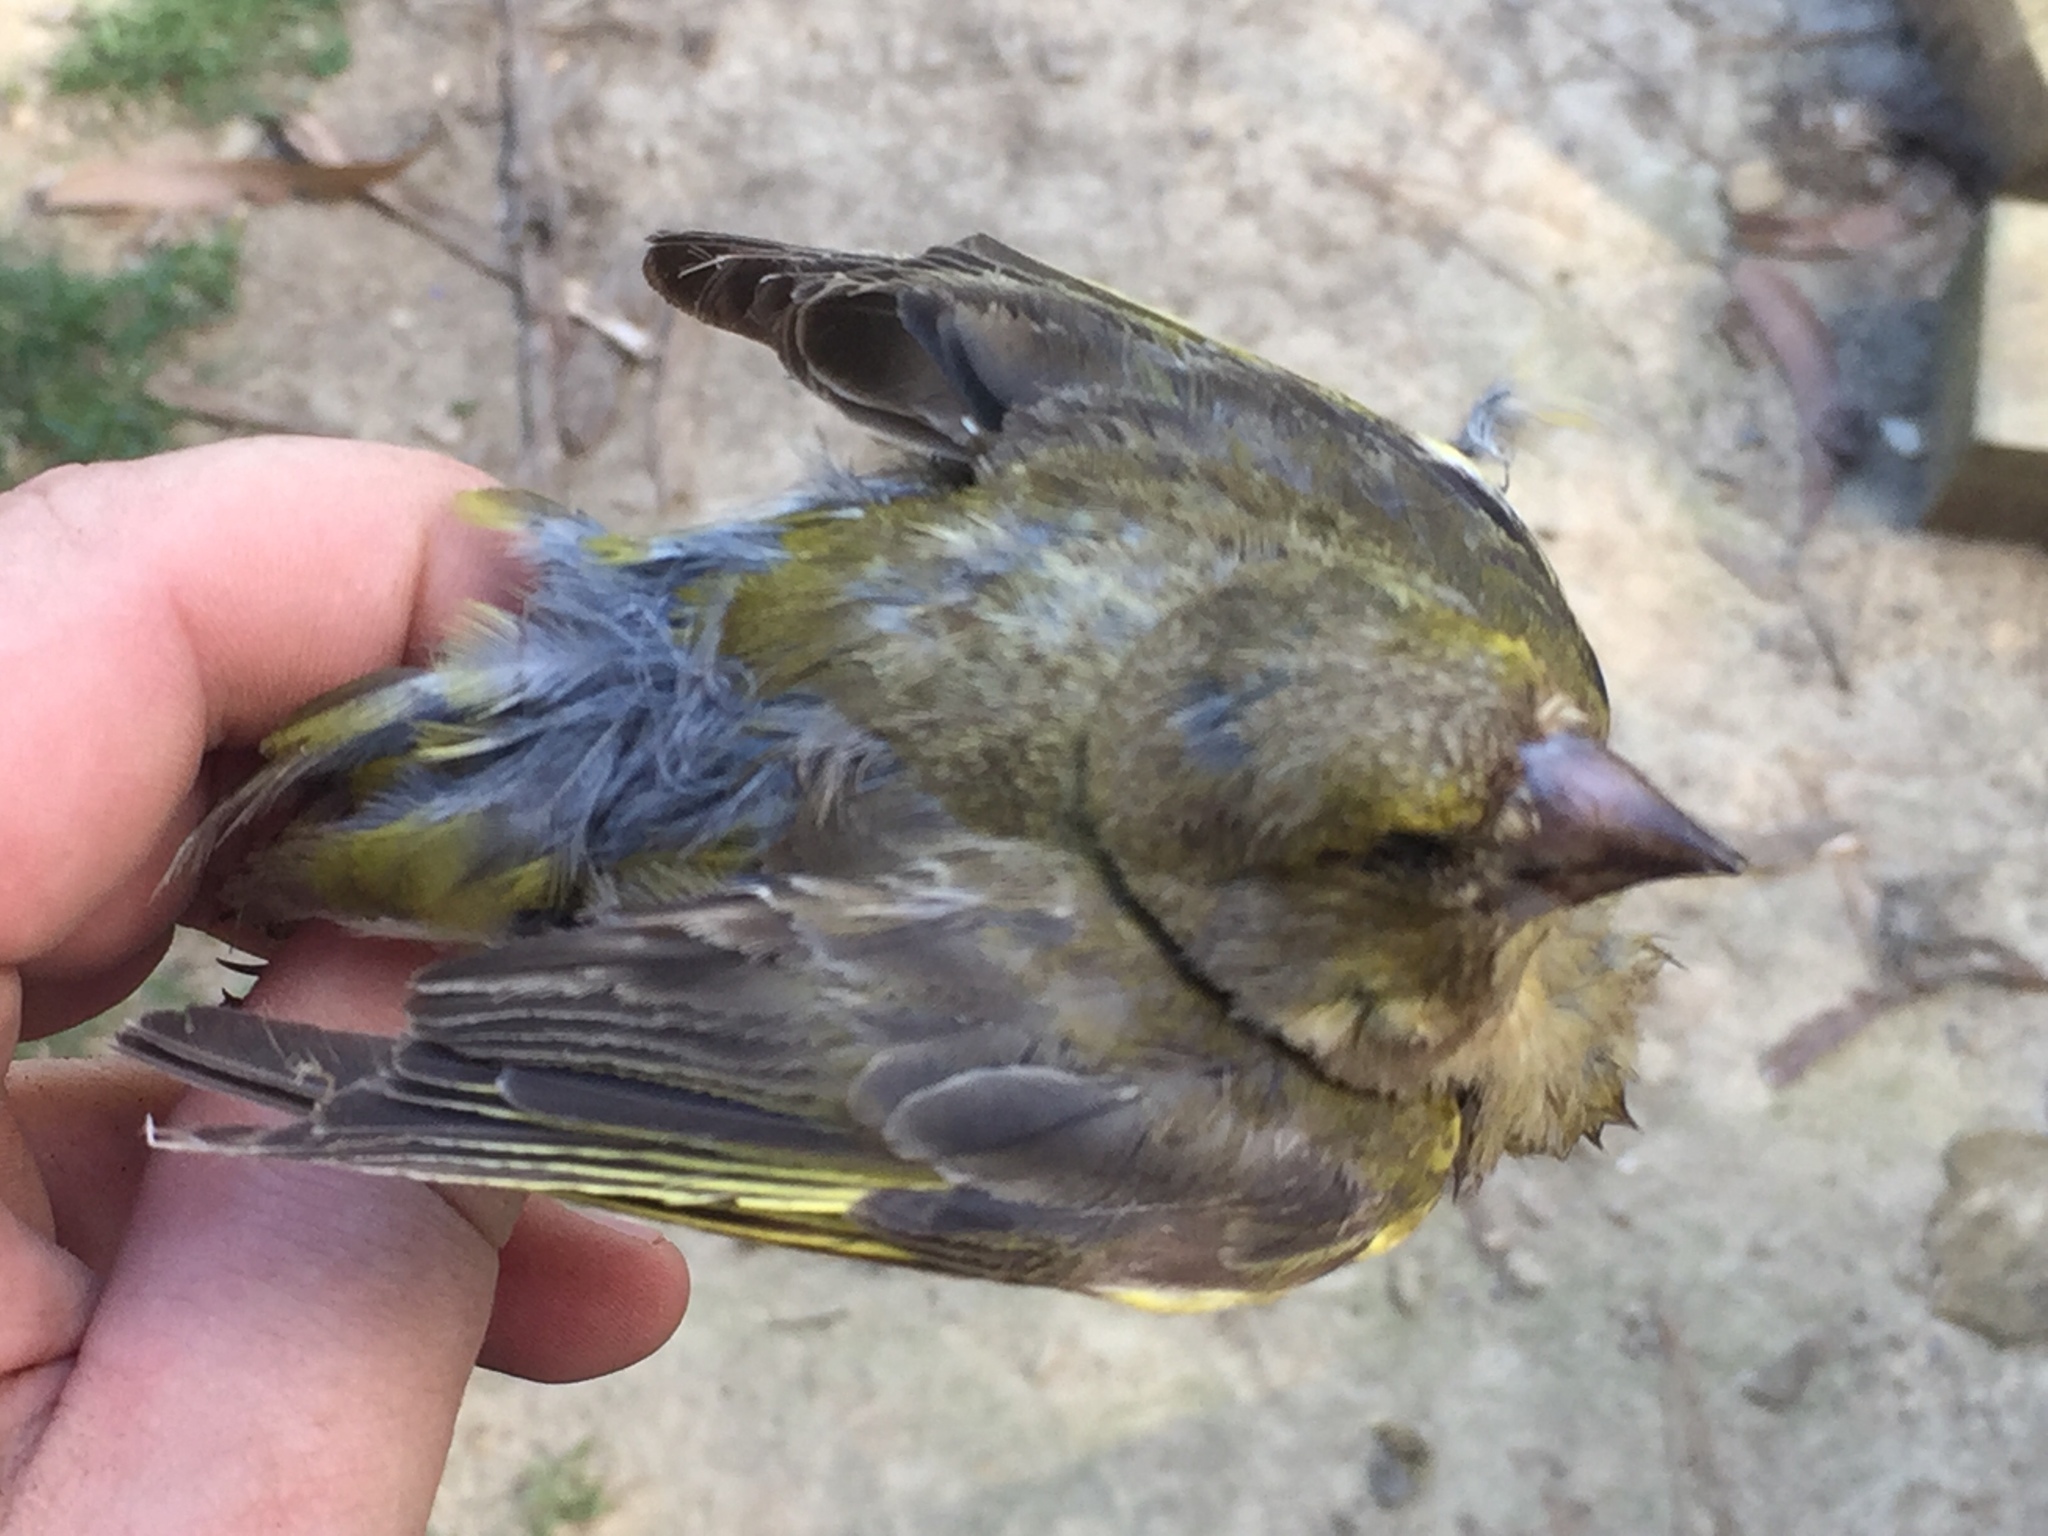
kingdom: Plantae
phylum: Tracheophyta
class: Liliopsida
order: Poales
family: Poaceae
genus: Chloris
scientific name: Chloris chloris
